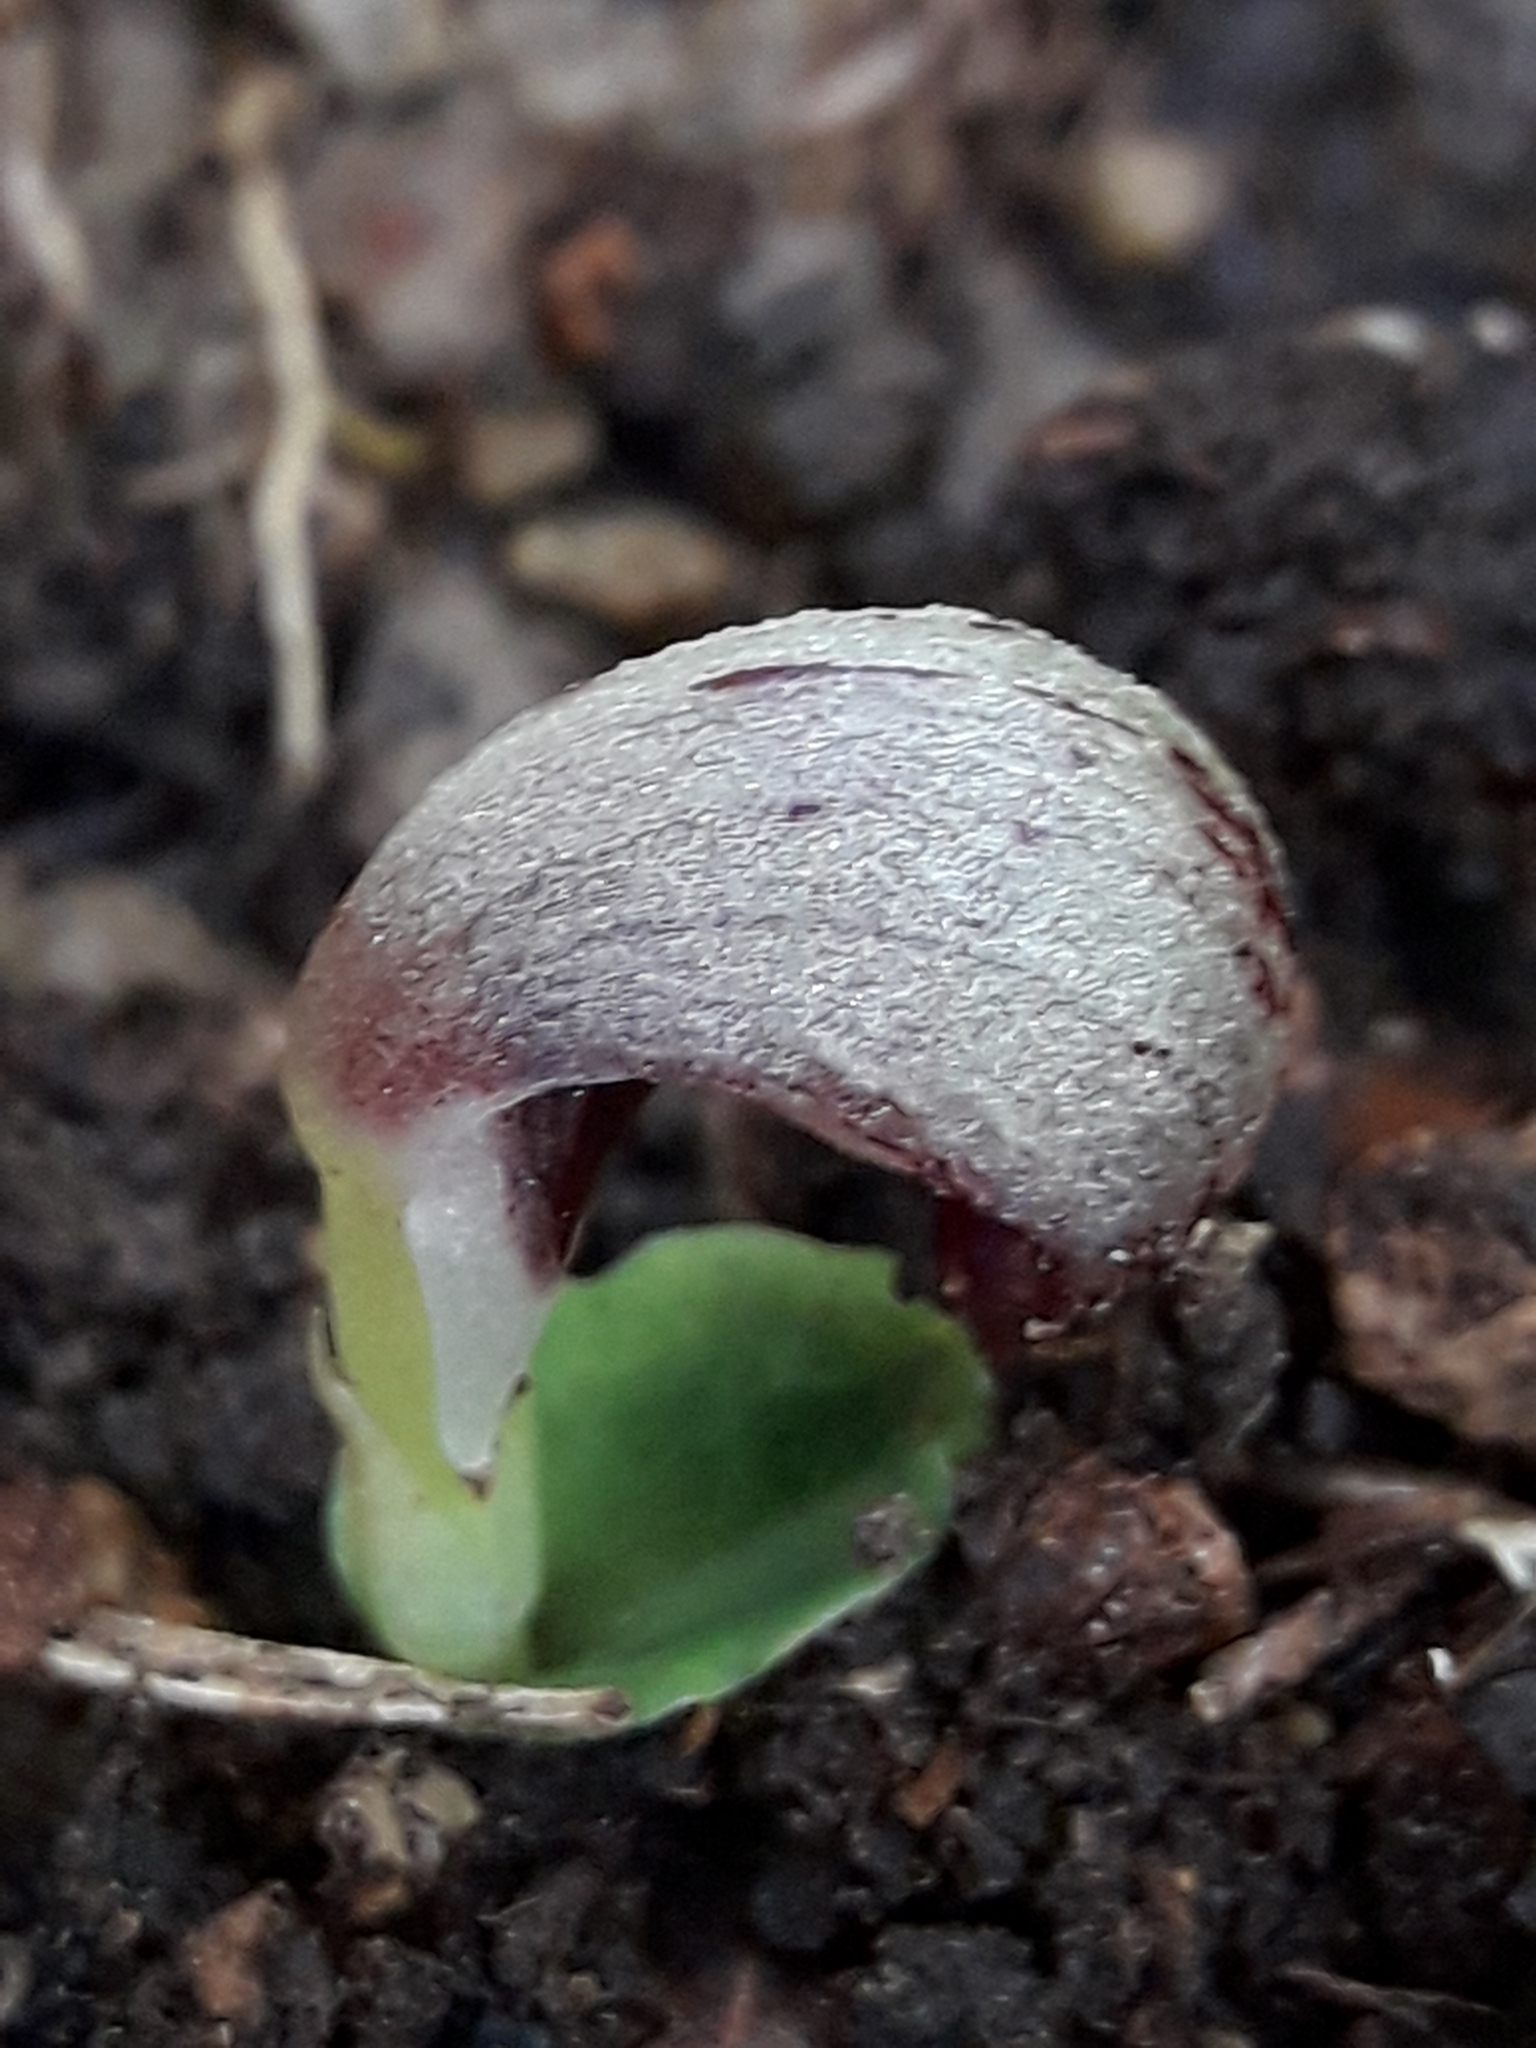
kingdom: Plantae
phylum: Tracheophyta
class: Liliopsida
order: Asparagales
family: Orchidaceae
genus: Corybas
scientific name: Corybas cheesemanii
